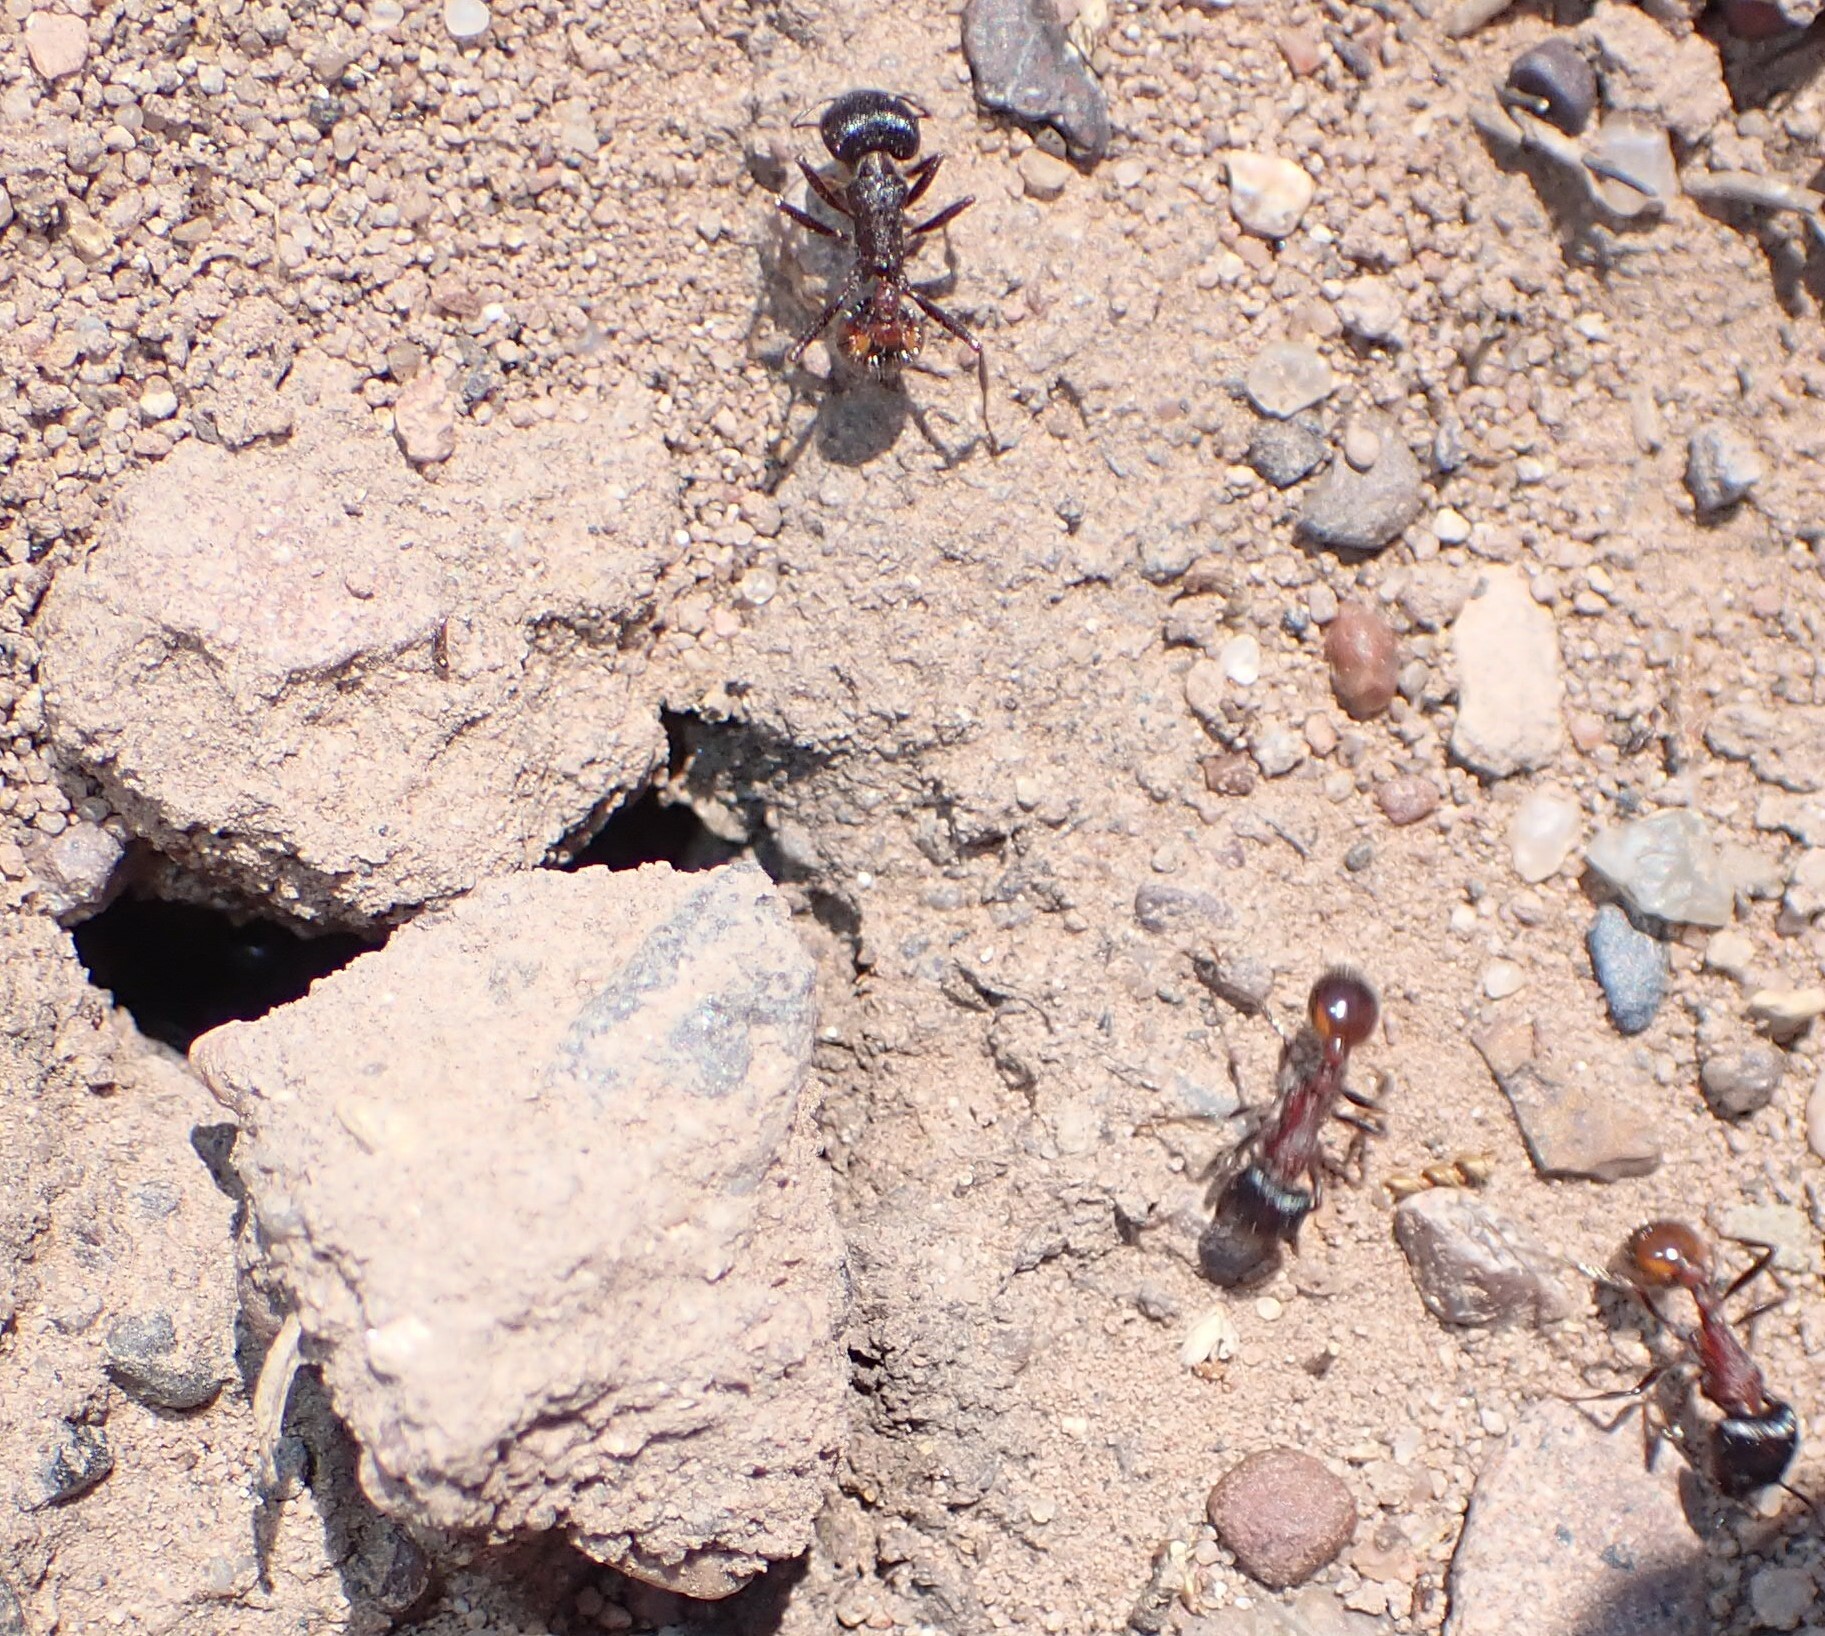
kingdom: Animalia
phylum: Arthropoda
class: Insecta
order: Hymenoptera
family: Formicidae
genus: Pogonomyrmex
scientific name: Pogonomyrmex rugosus
